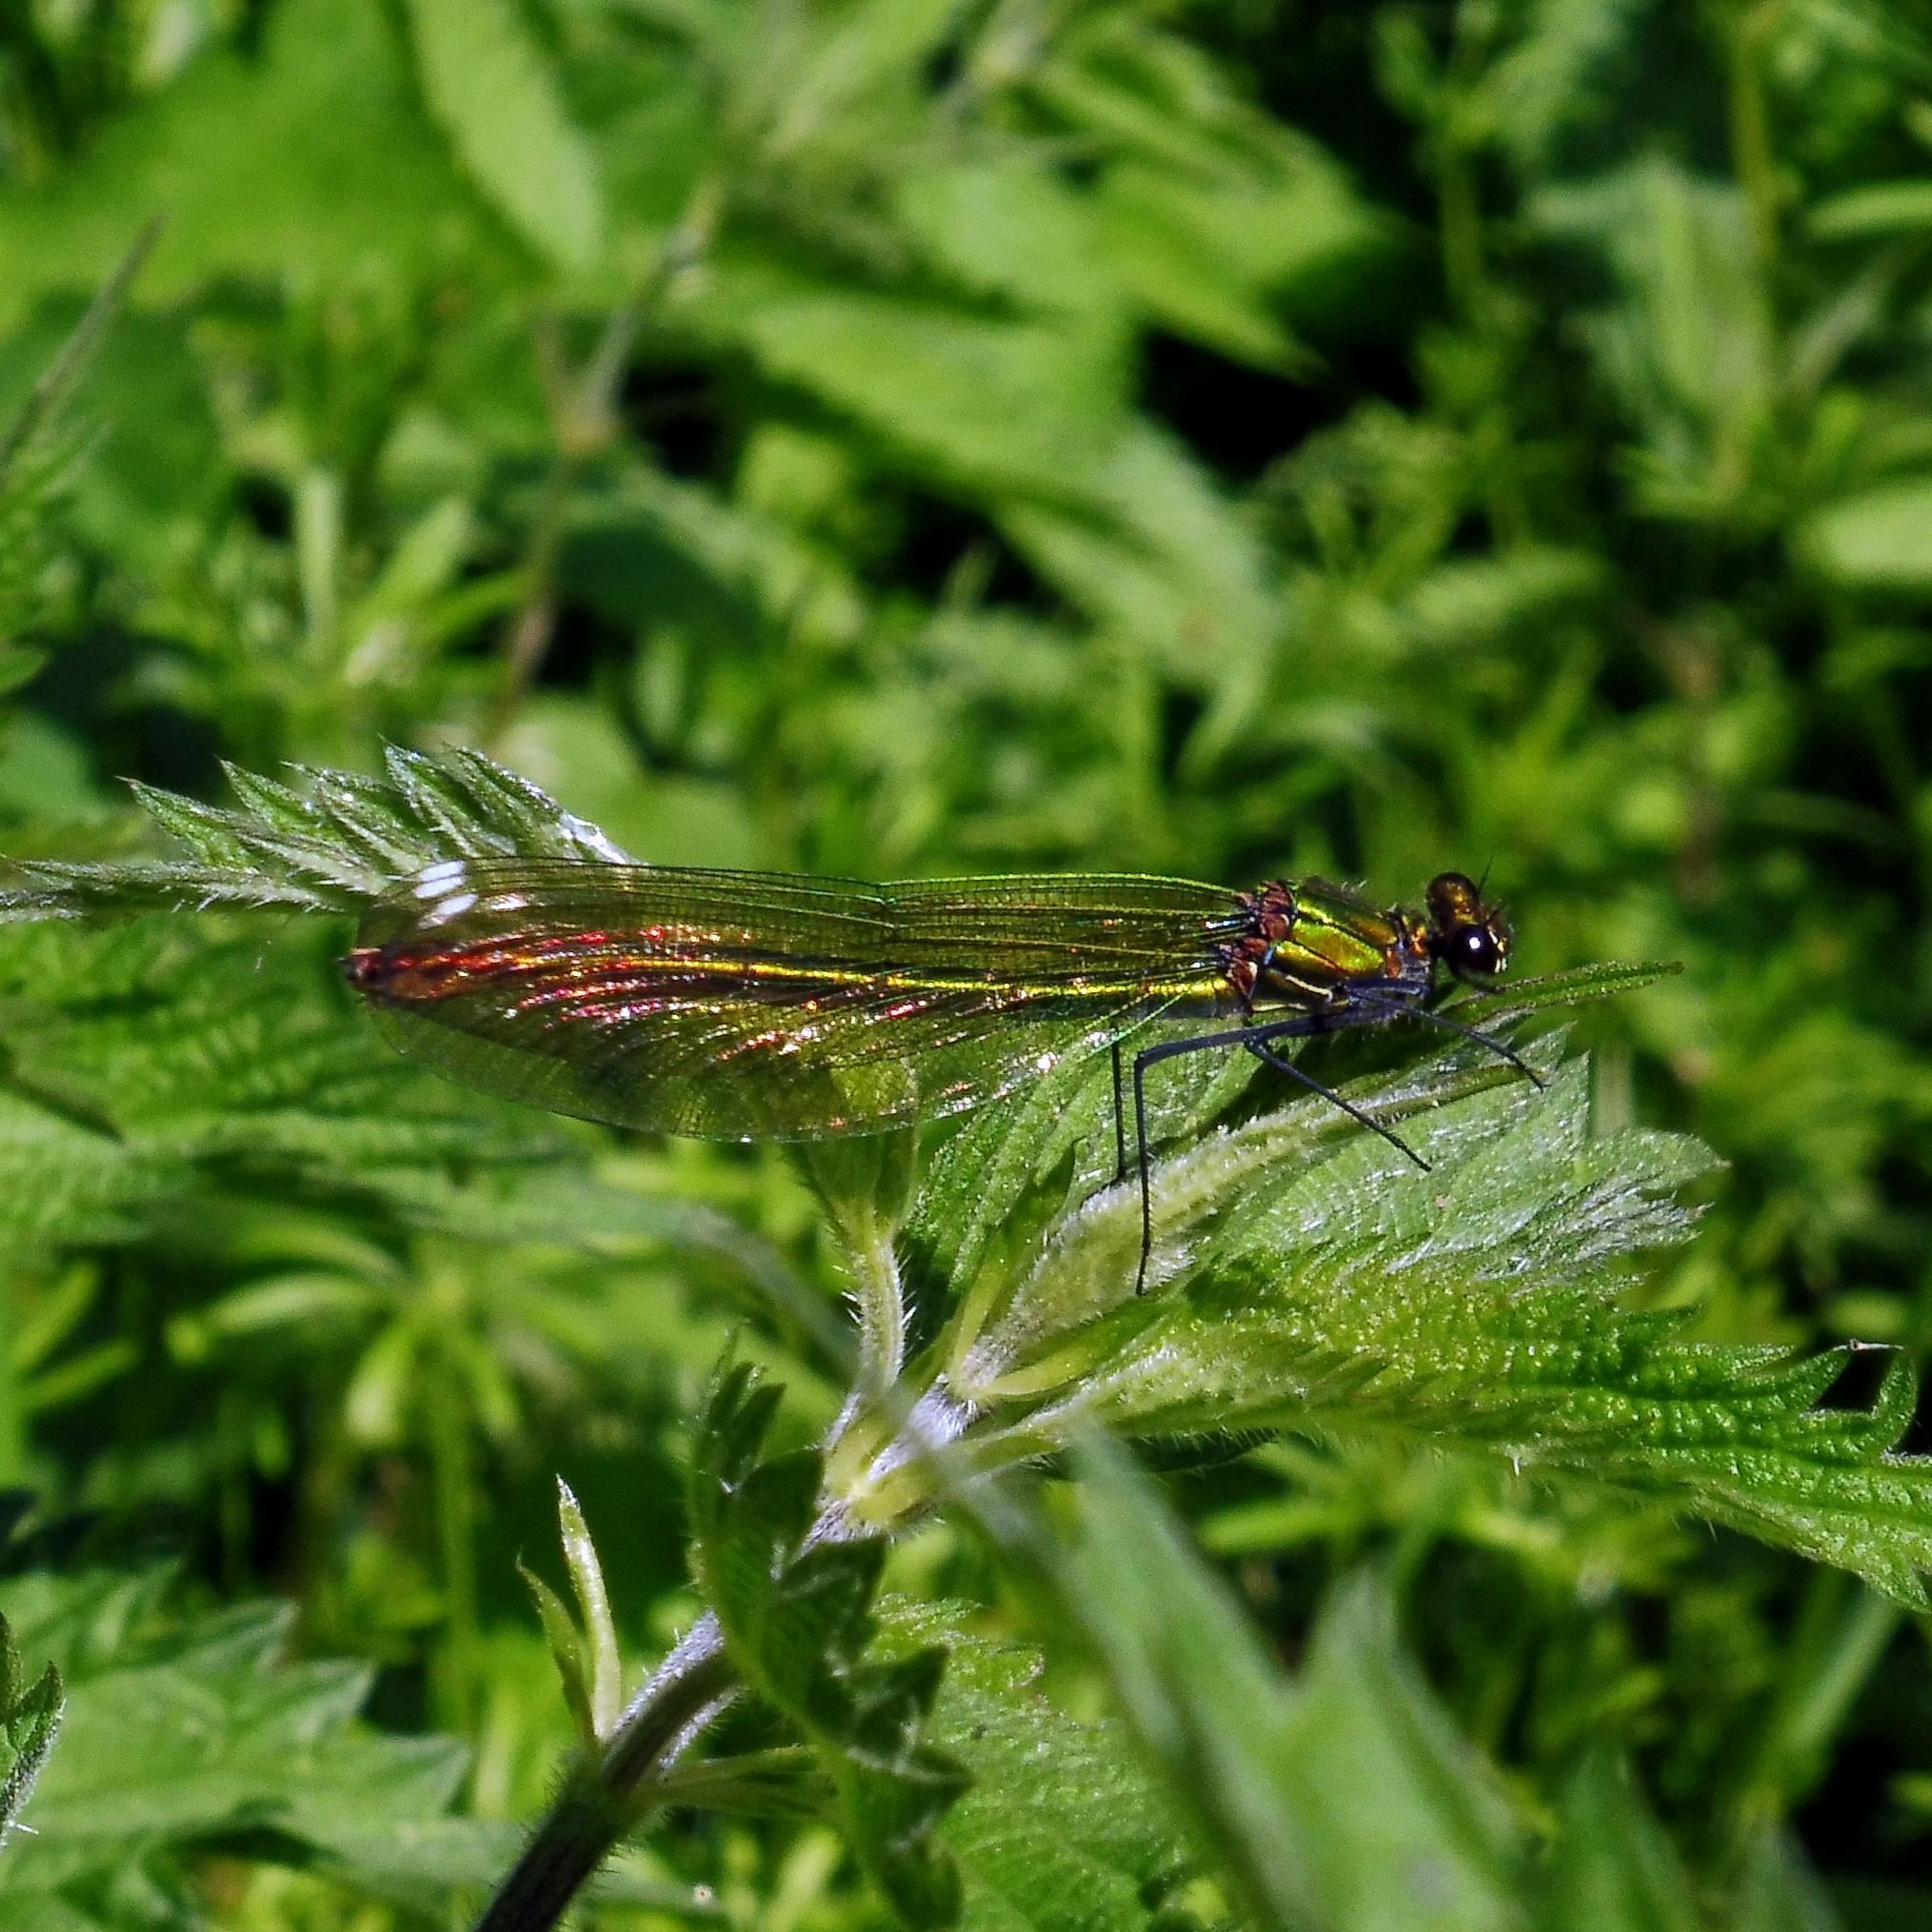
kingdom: Animalia
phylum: Arthropoda
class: Insecta
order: Odonata
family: Calopterygidae
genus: Calopteryx
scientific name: Calopteryx splendens
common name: Banded demoiselle
